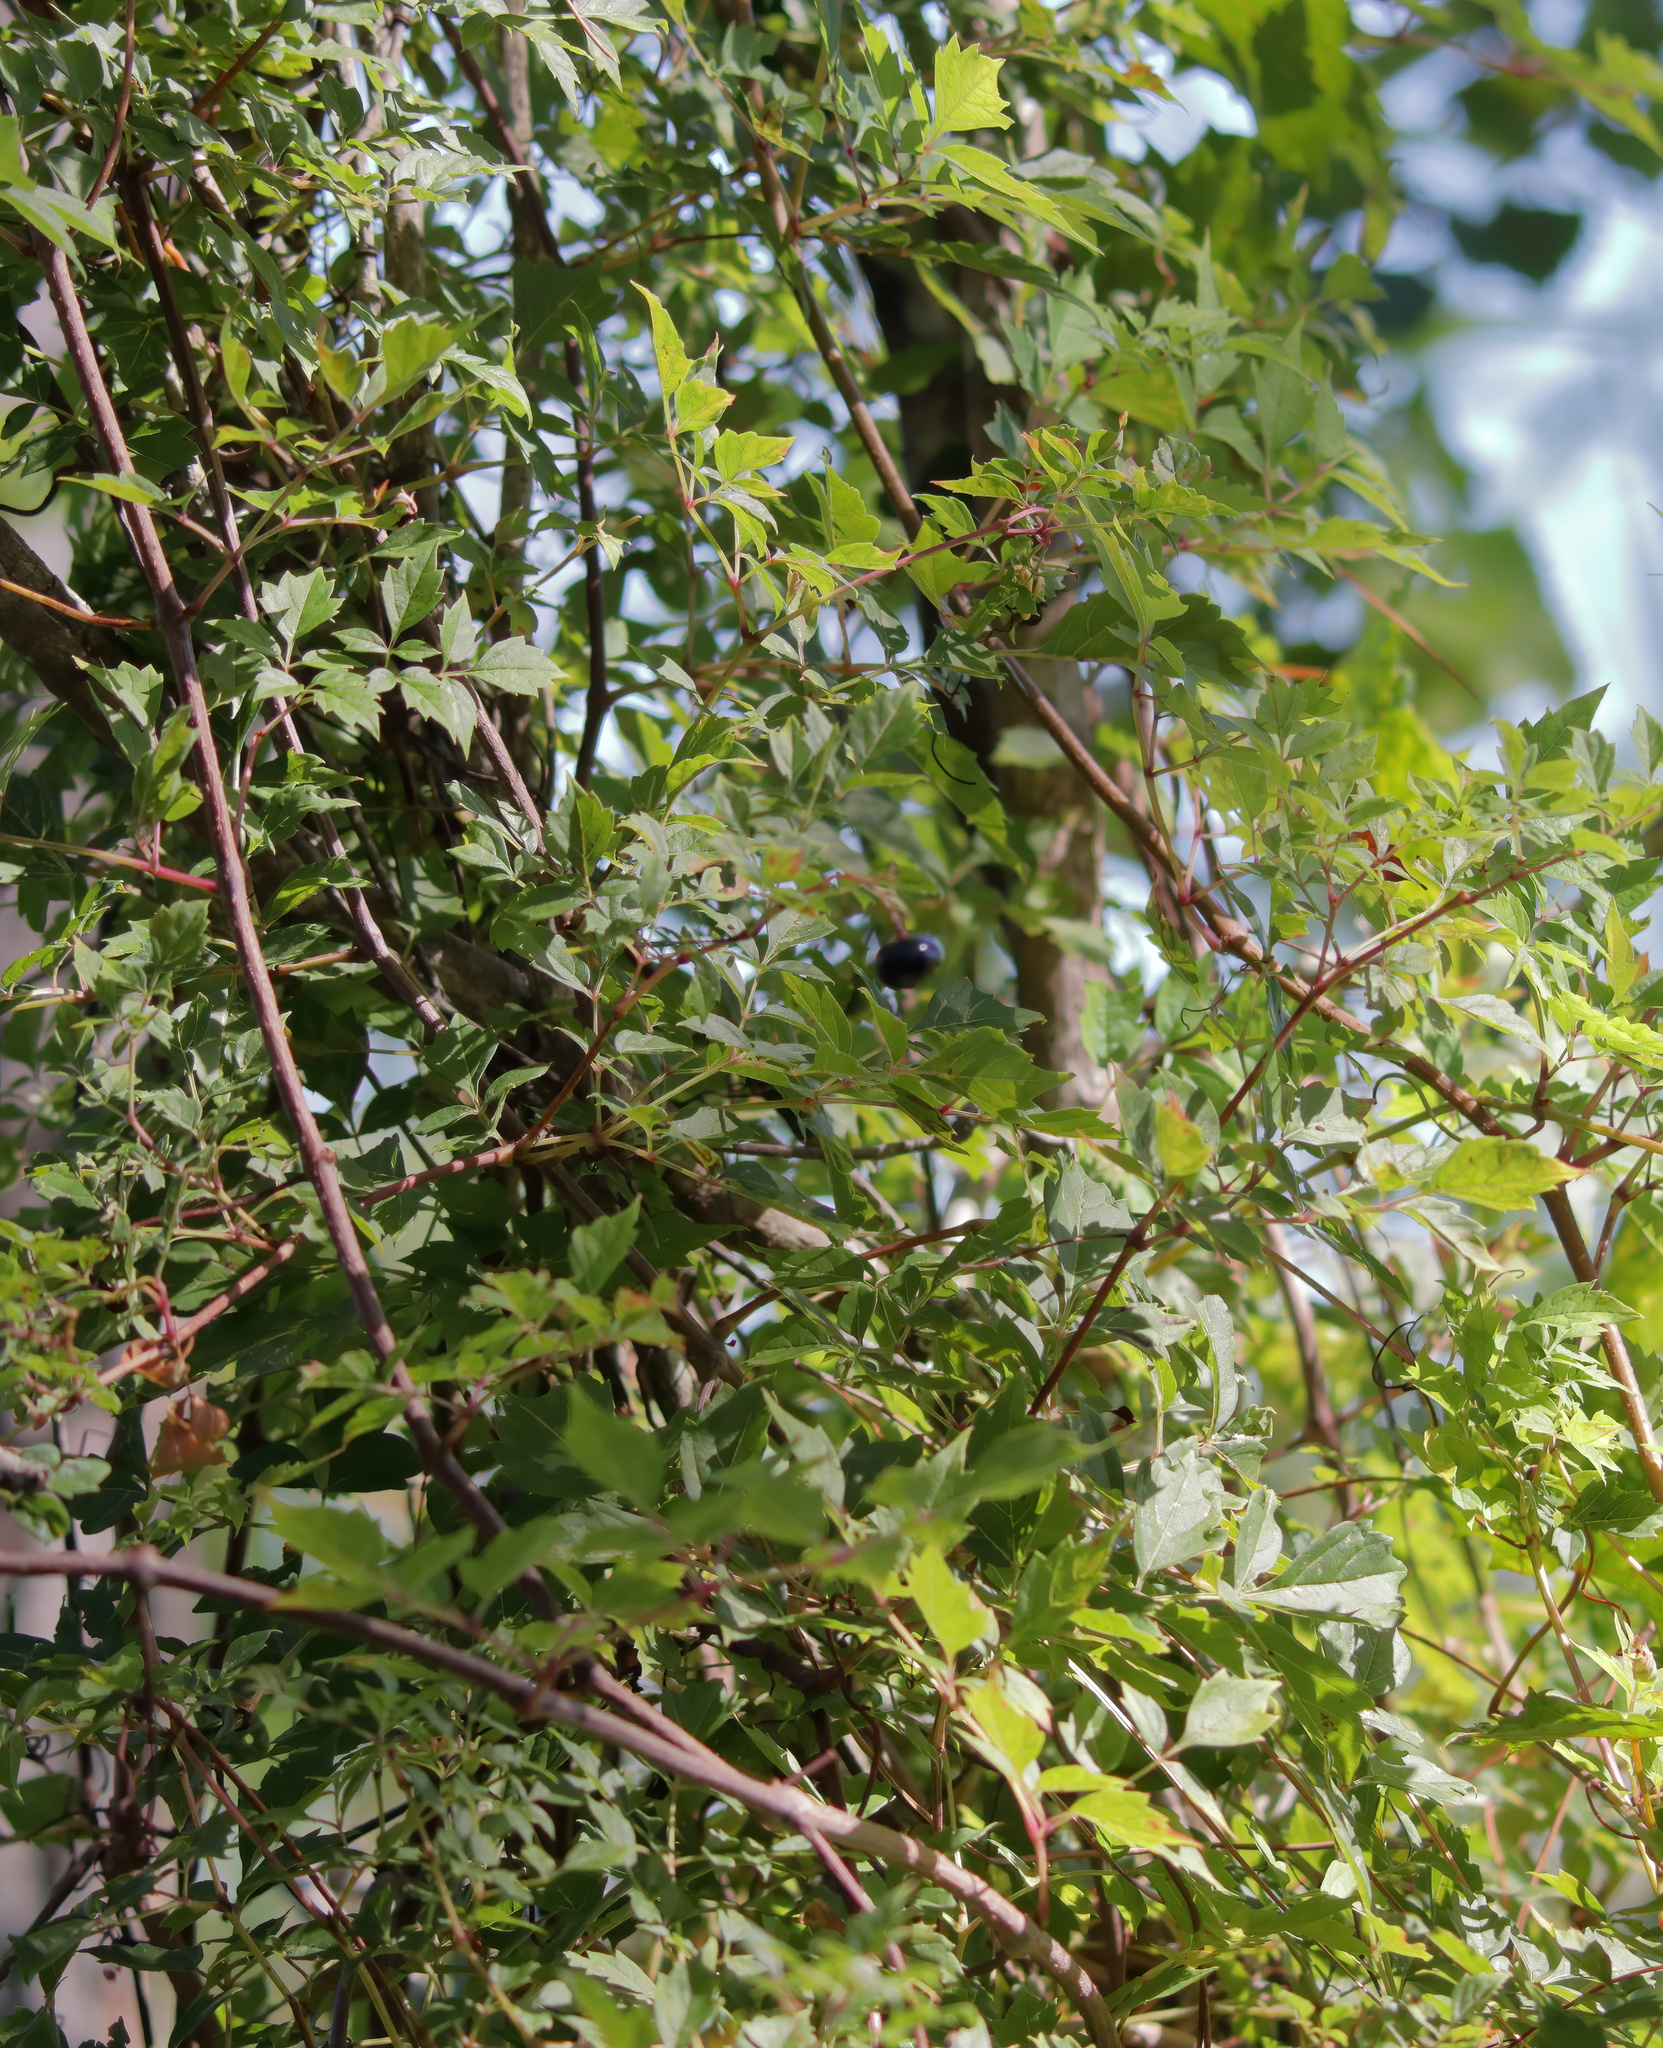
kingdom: Plantae
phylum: Tracheophyta
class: Magnoliopsida
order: Vitales
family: Vitaceae
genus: Nekemias
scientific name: Nekemias arborea
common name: Peppervine
